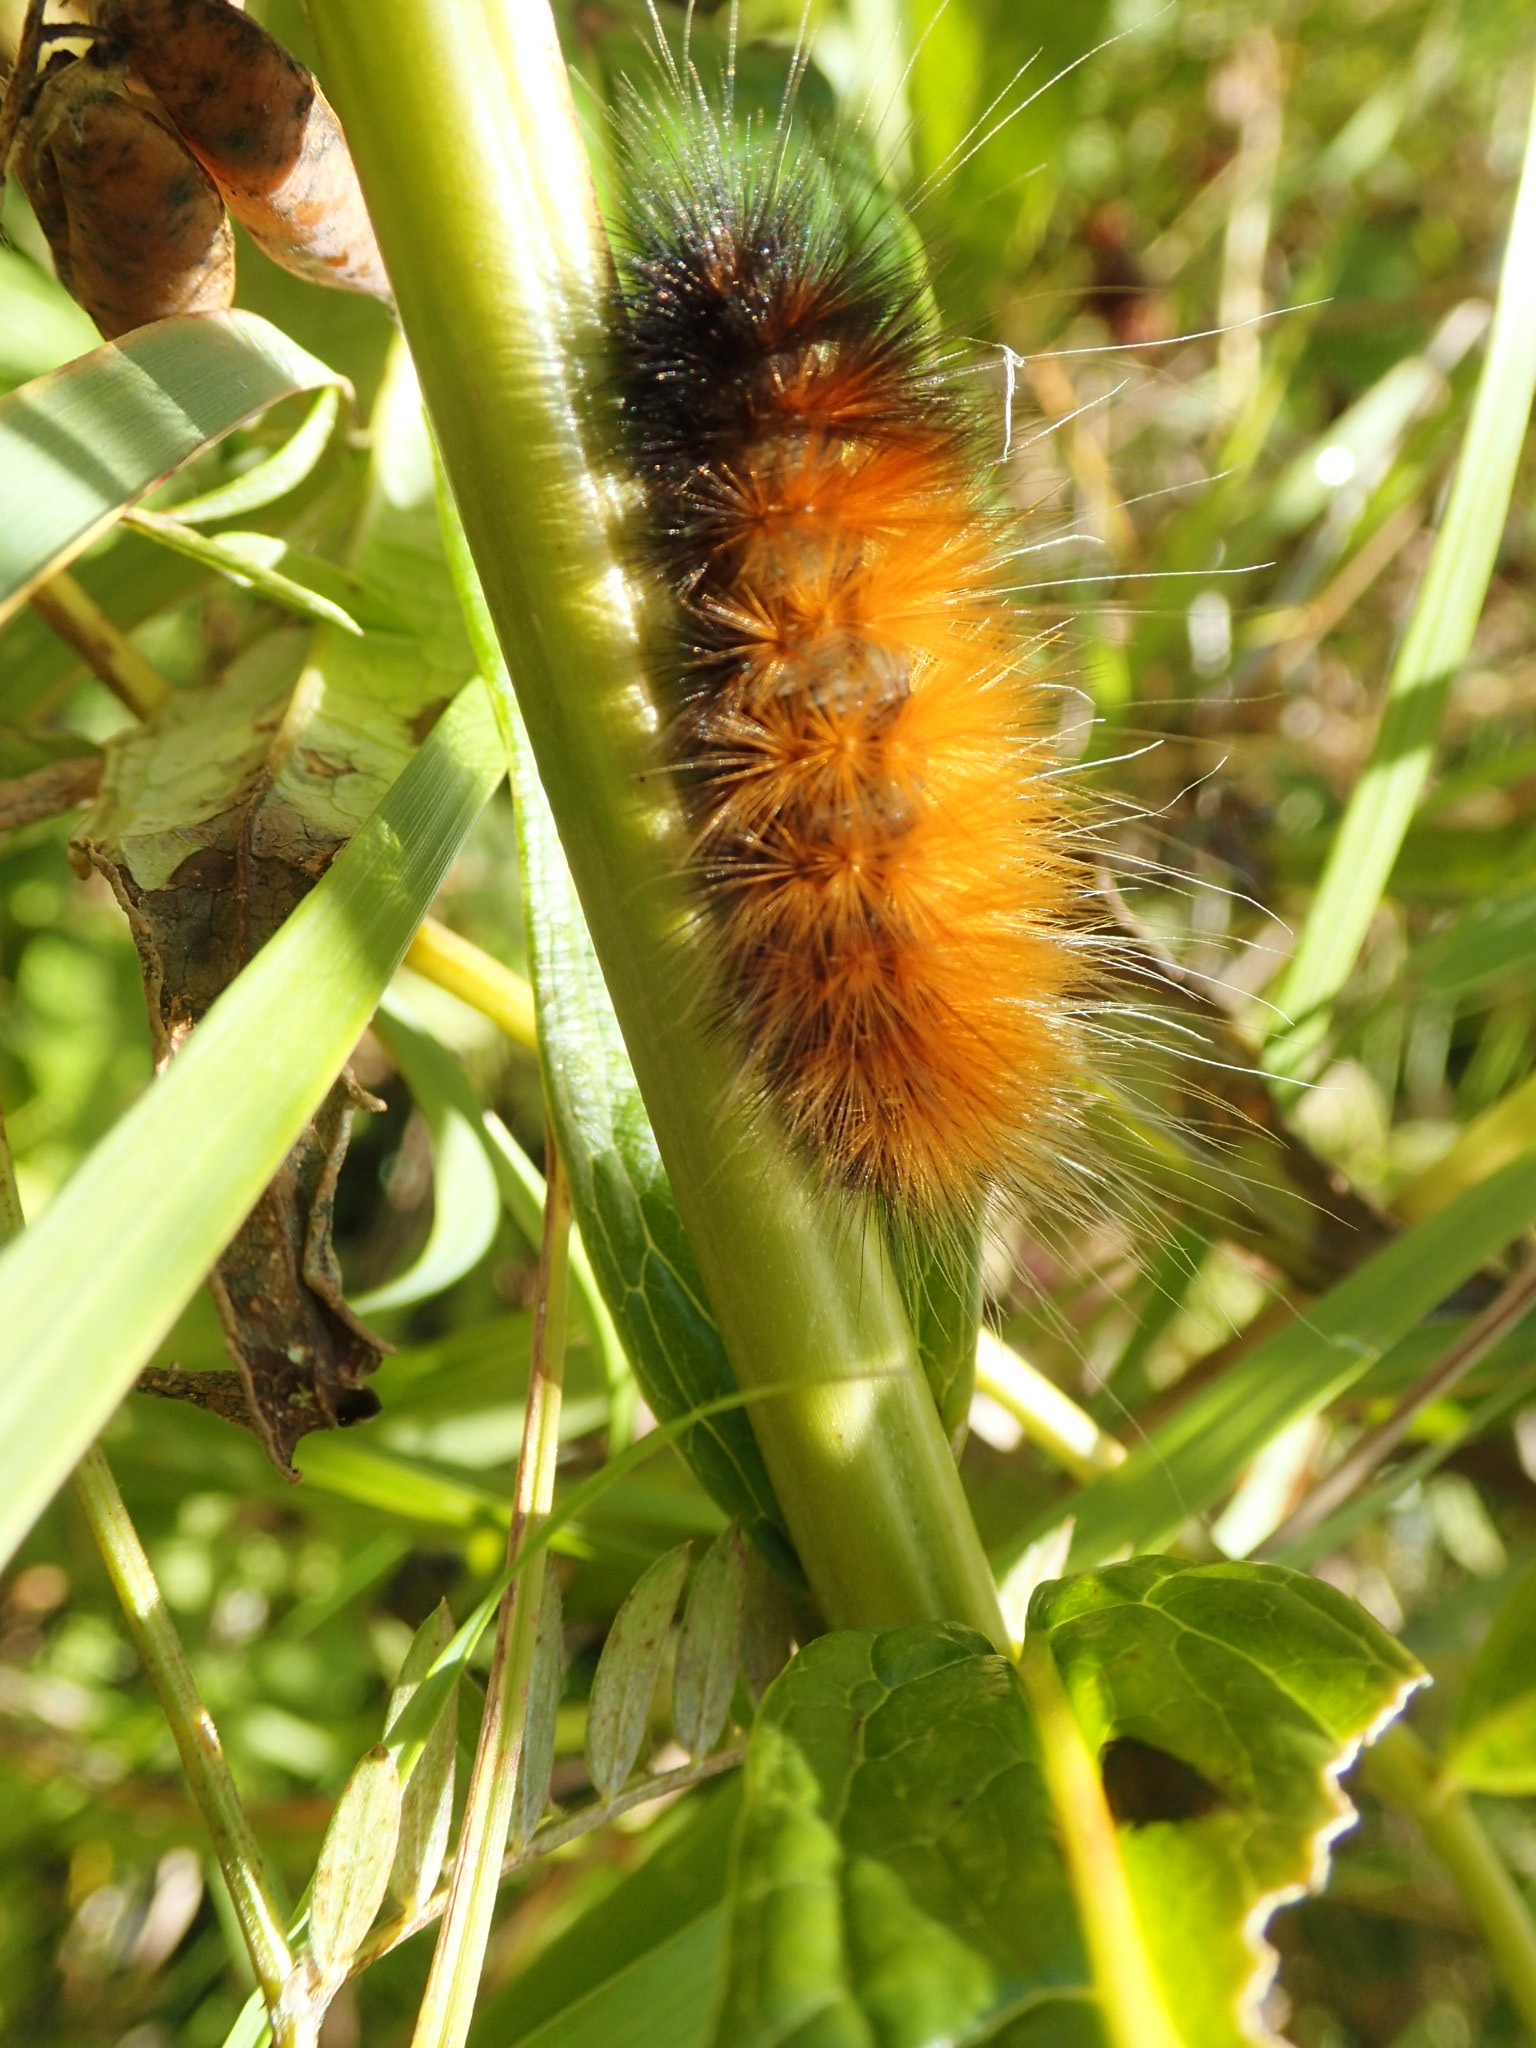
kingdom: Animalia
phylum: Arthropoda
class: Insecta
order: Lepidoptera
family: Erebidae
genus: Spilosoma
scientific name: Spilosoma virginica
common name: Virginia tiger moth
